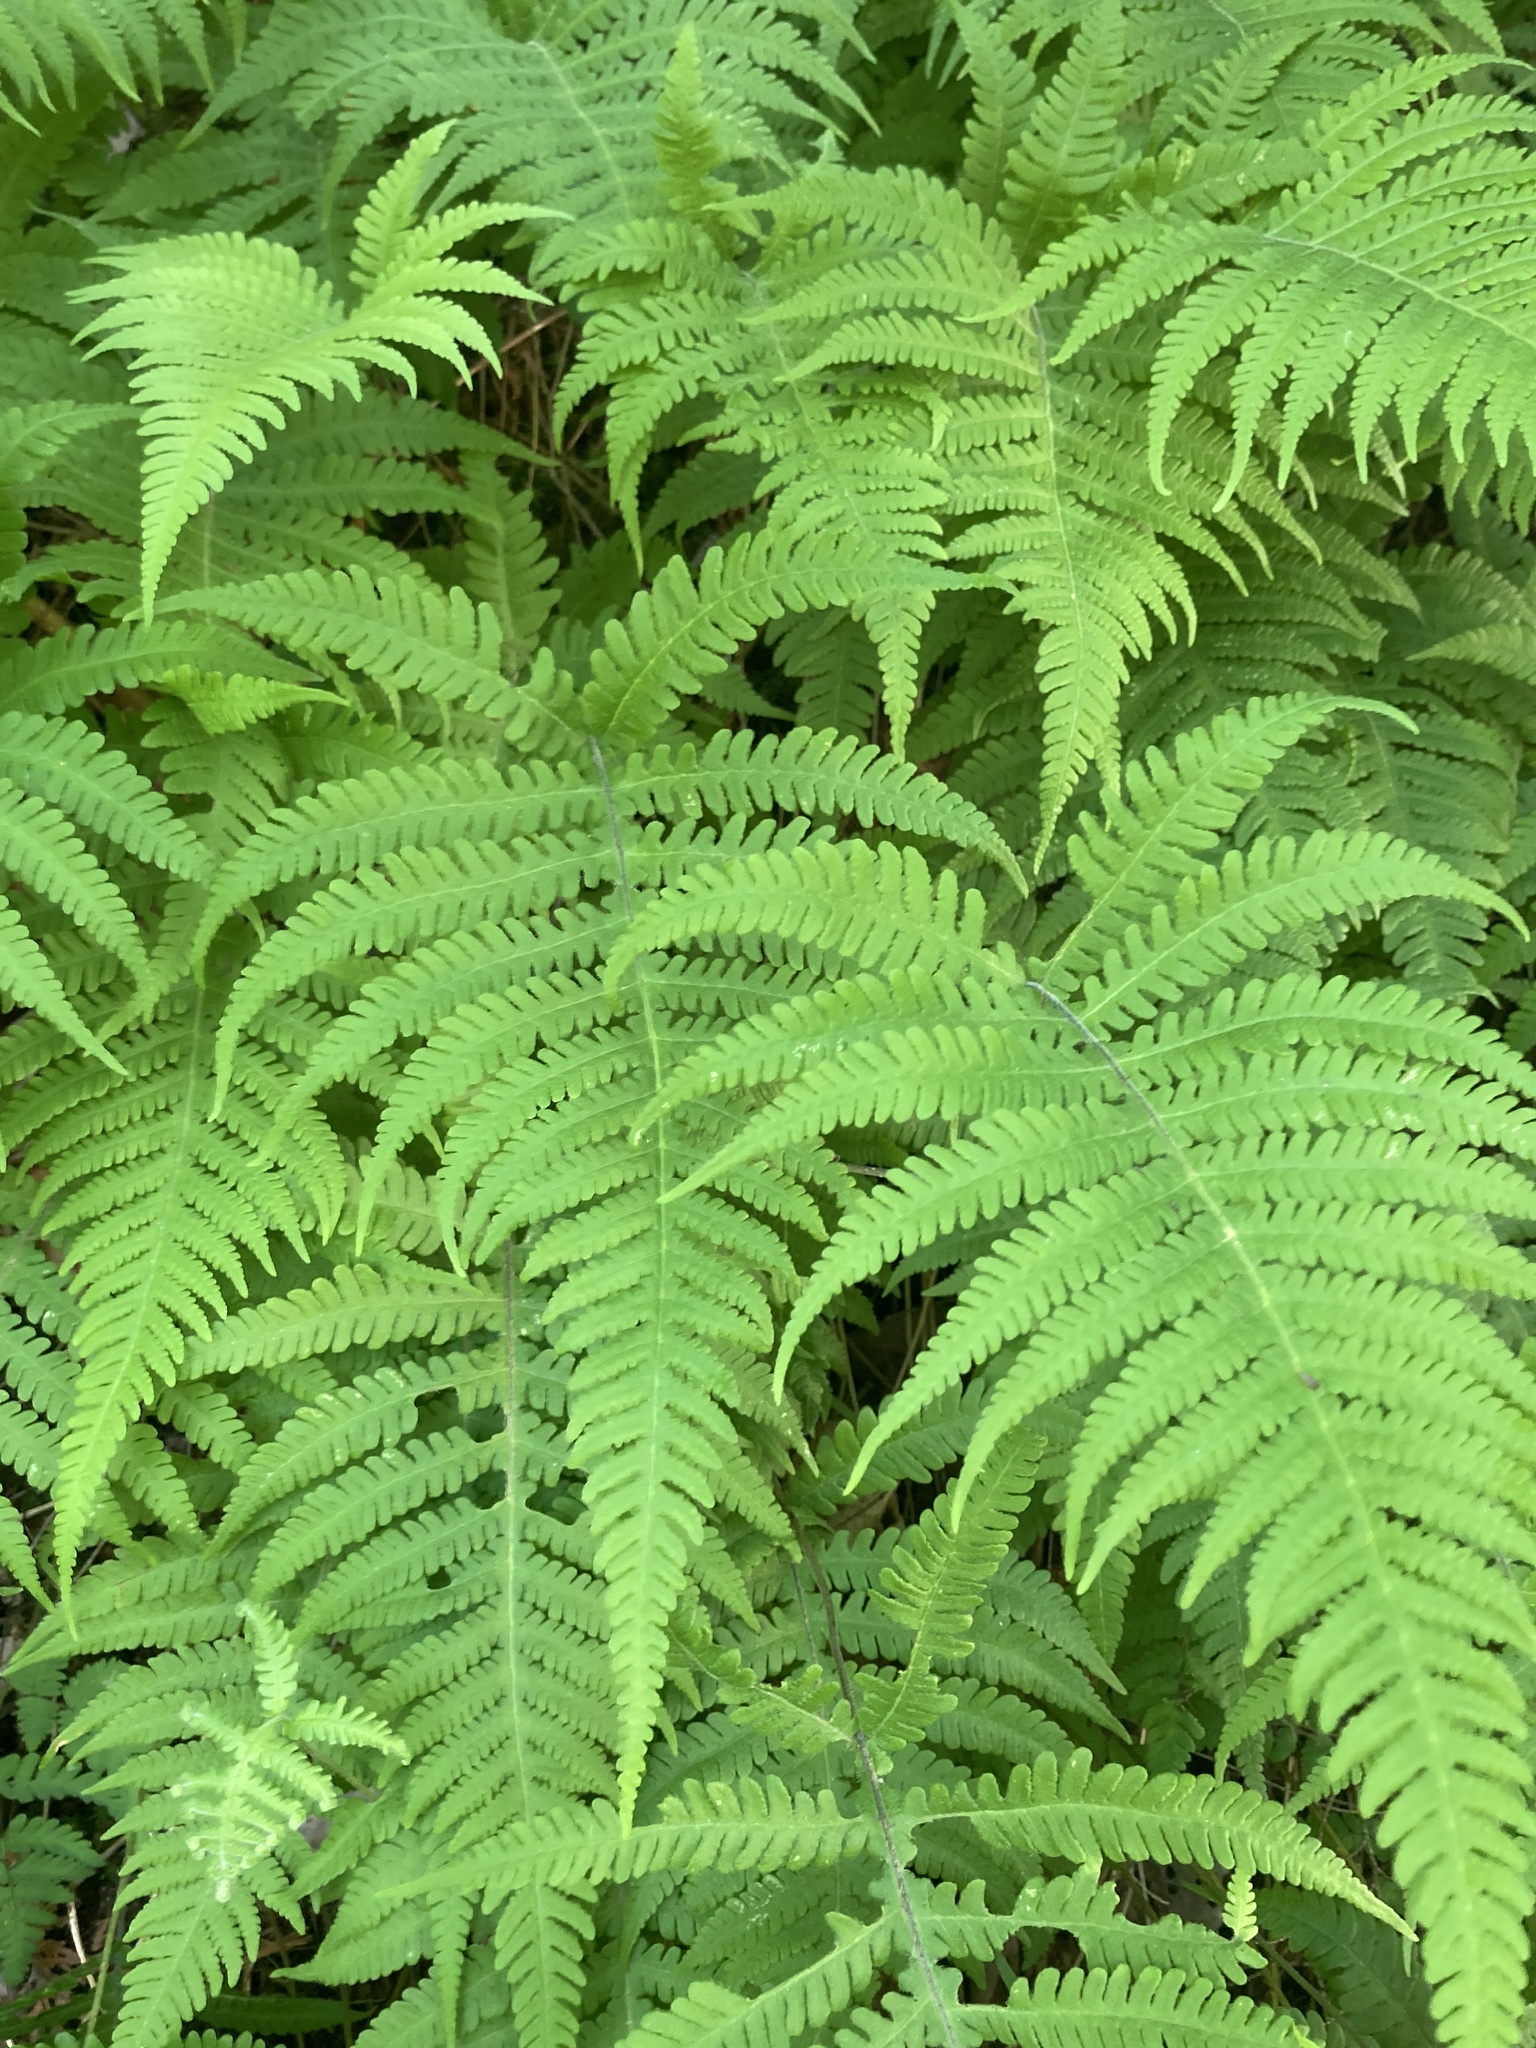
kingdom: Plantae
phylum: Tracheophyta
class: Polypodiopsida
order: Polypodiales
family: Thelypteridaceae
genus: Phegopteris
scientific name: Phegopteris connectilis
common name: Beech fern
